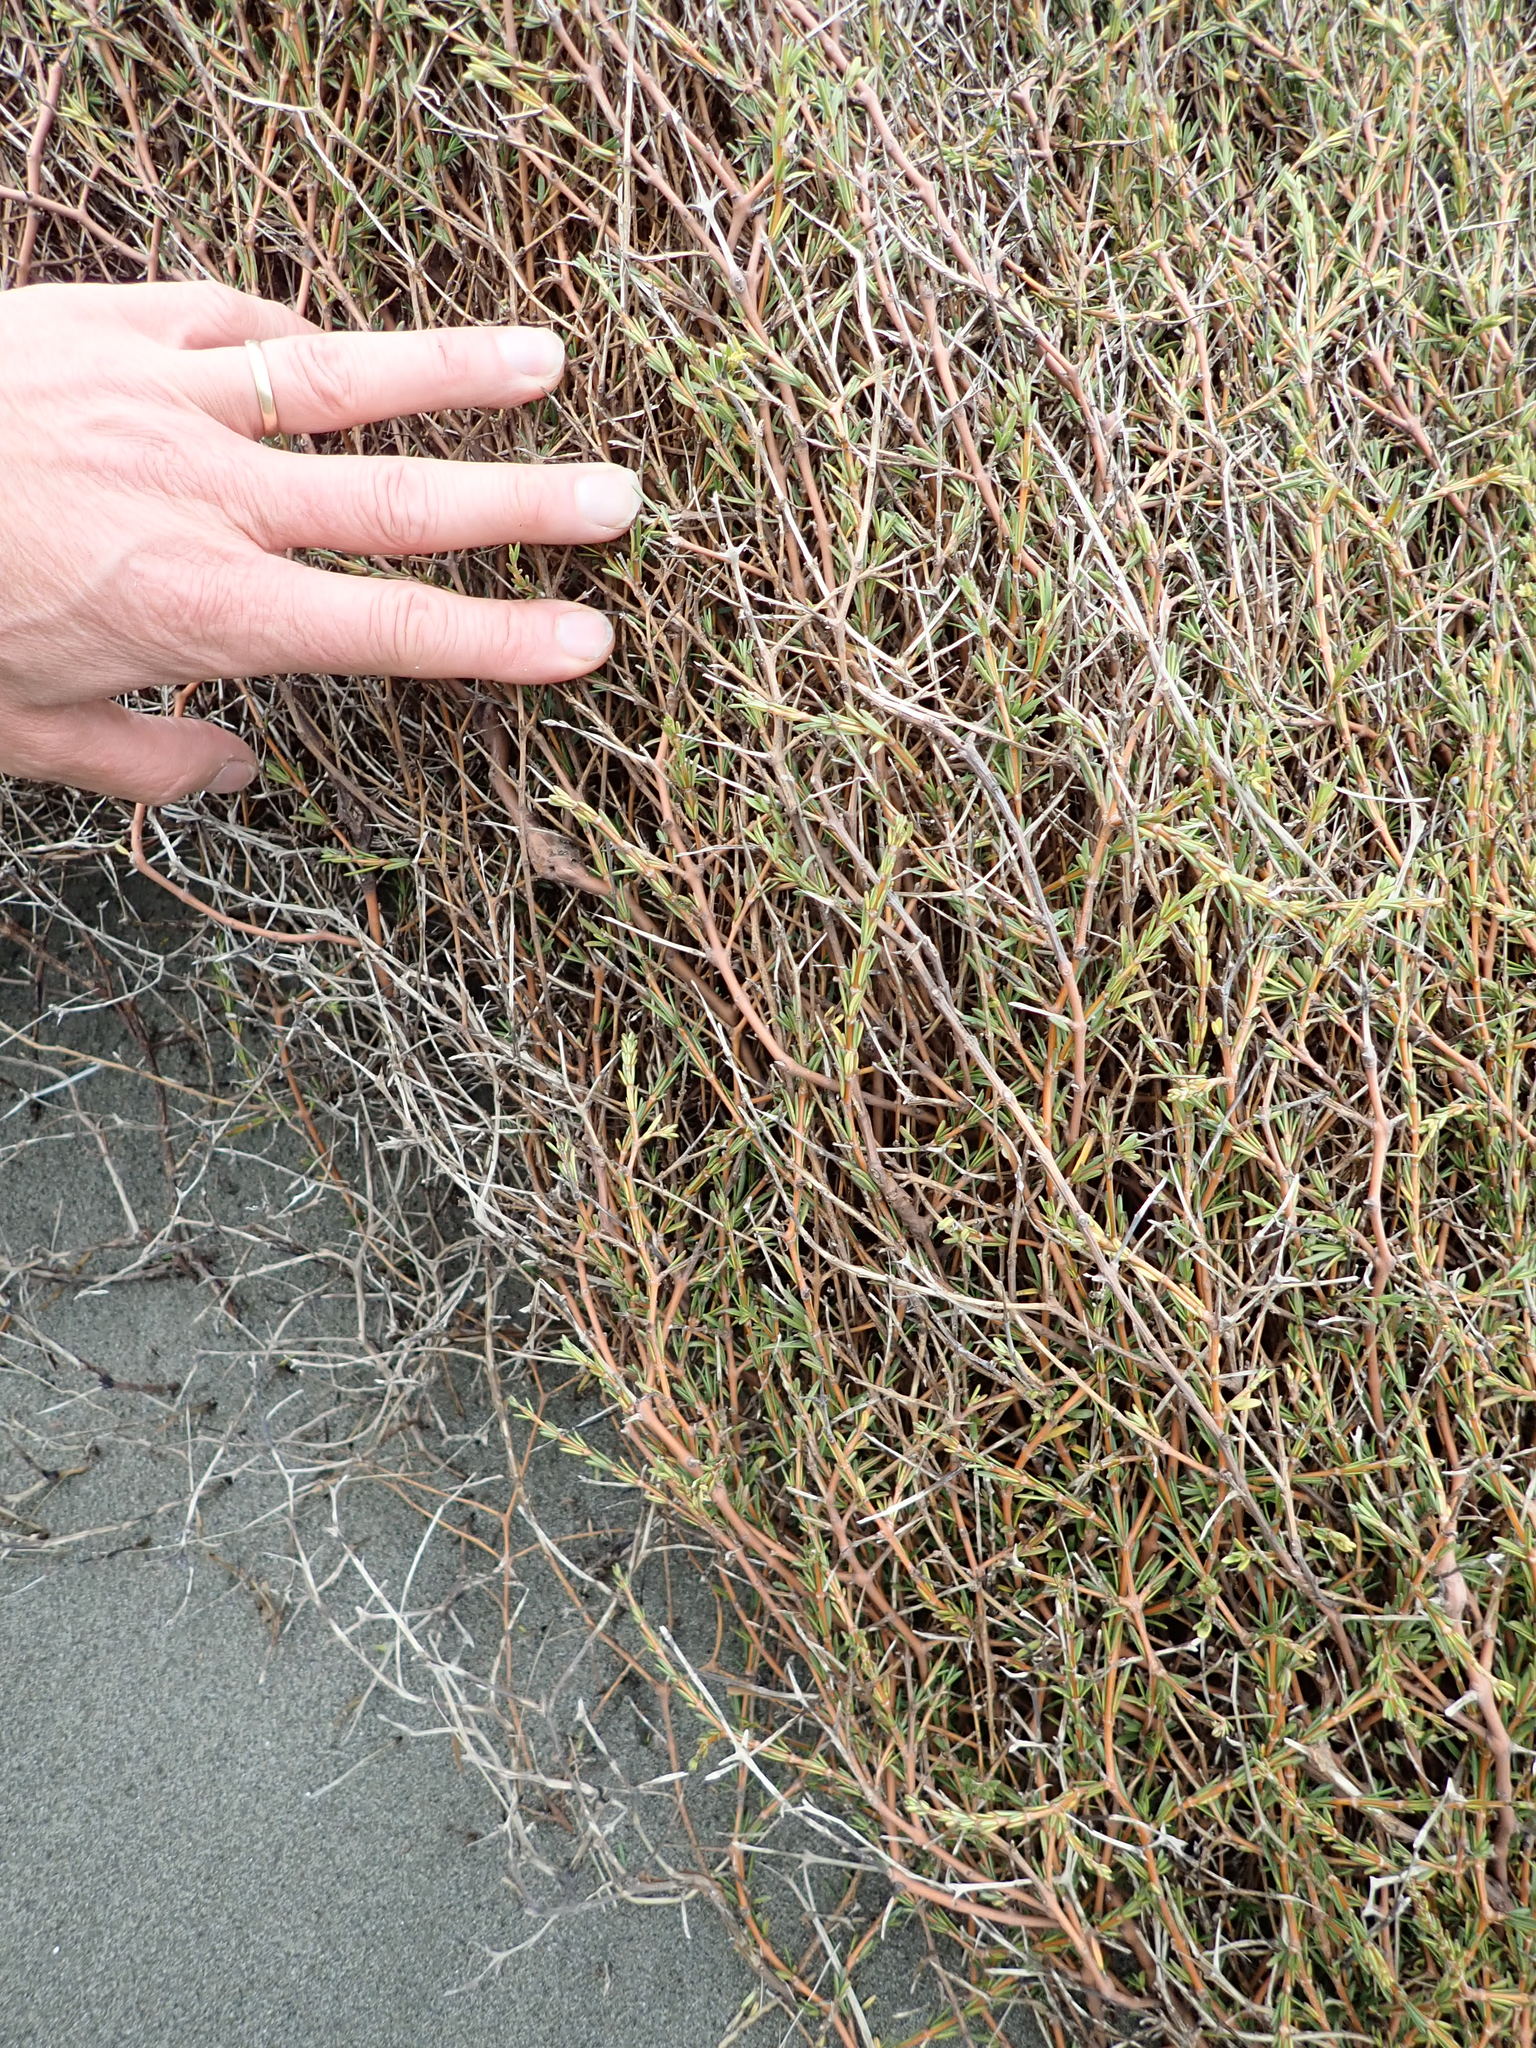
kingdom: Plantae
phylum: Tracheophyta
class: Magnoliopsida
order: Gentianales
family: Rubiaceae
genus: Coprosma
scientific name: Coprosma acerosa
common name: Sand coprosma
